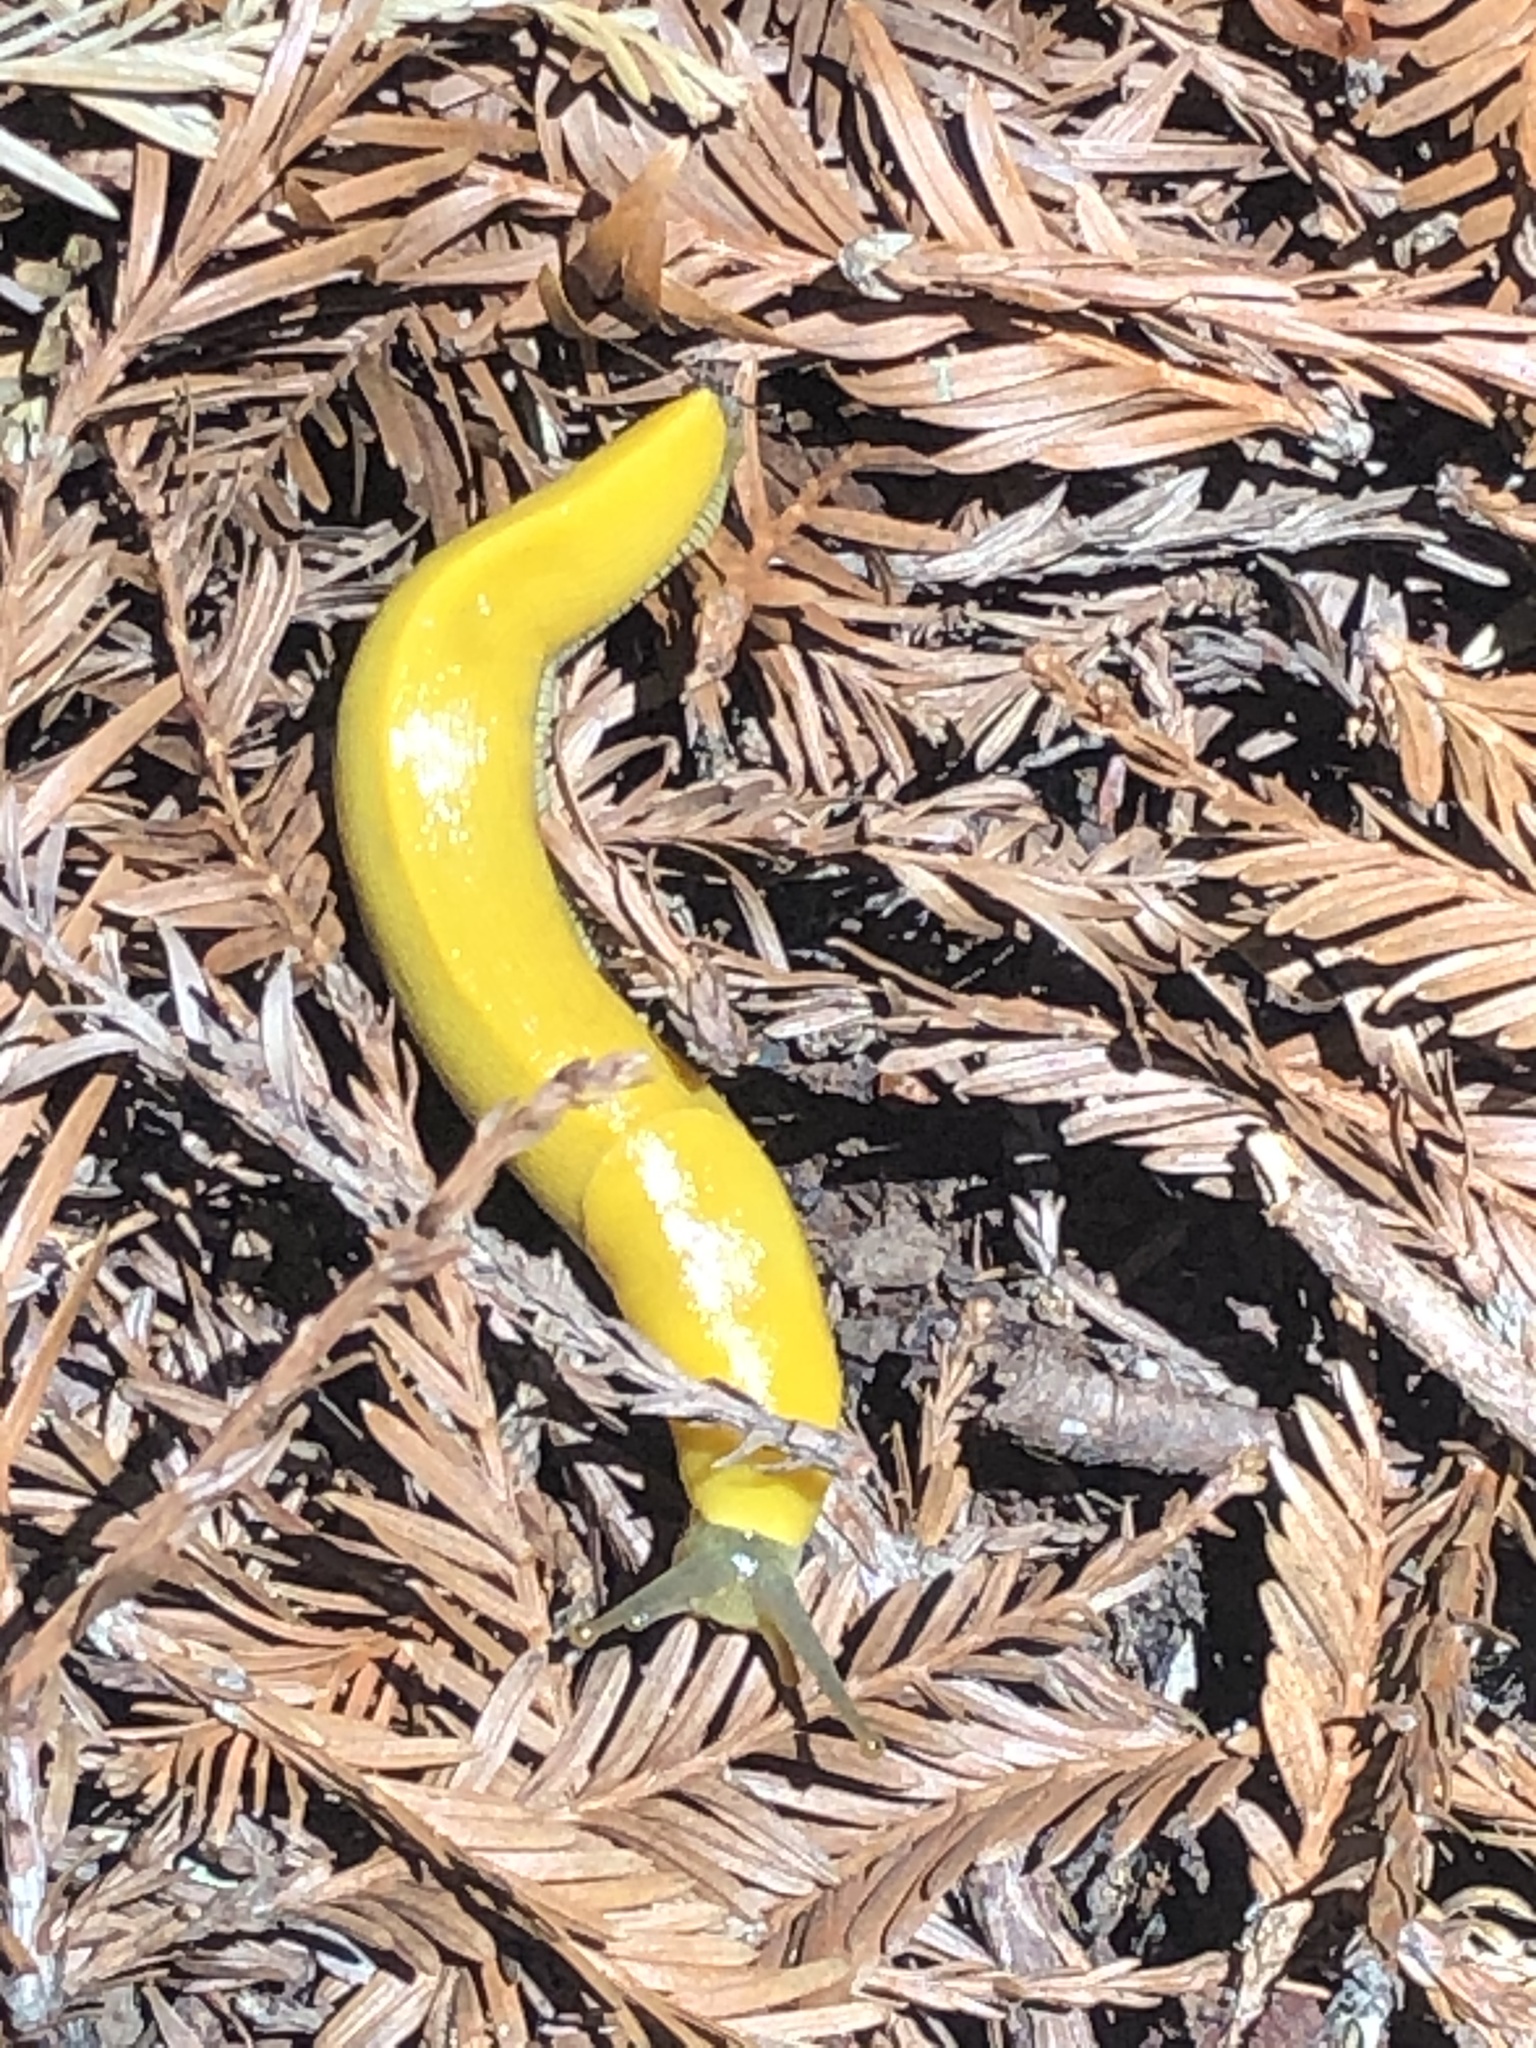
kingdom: Animalia
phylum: Mollusca
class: Gastropoda
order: Stylommatophora
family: Ariolimacidae
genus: Ariolimax
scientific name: Ariolimax dolichophallus
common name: Slender banana slug
